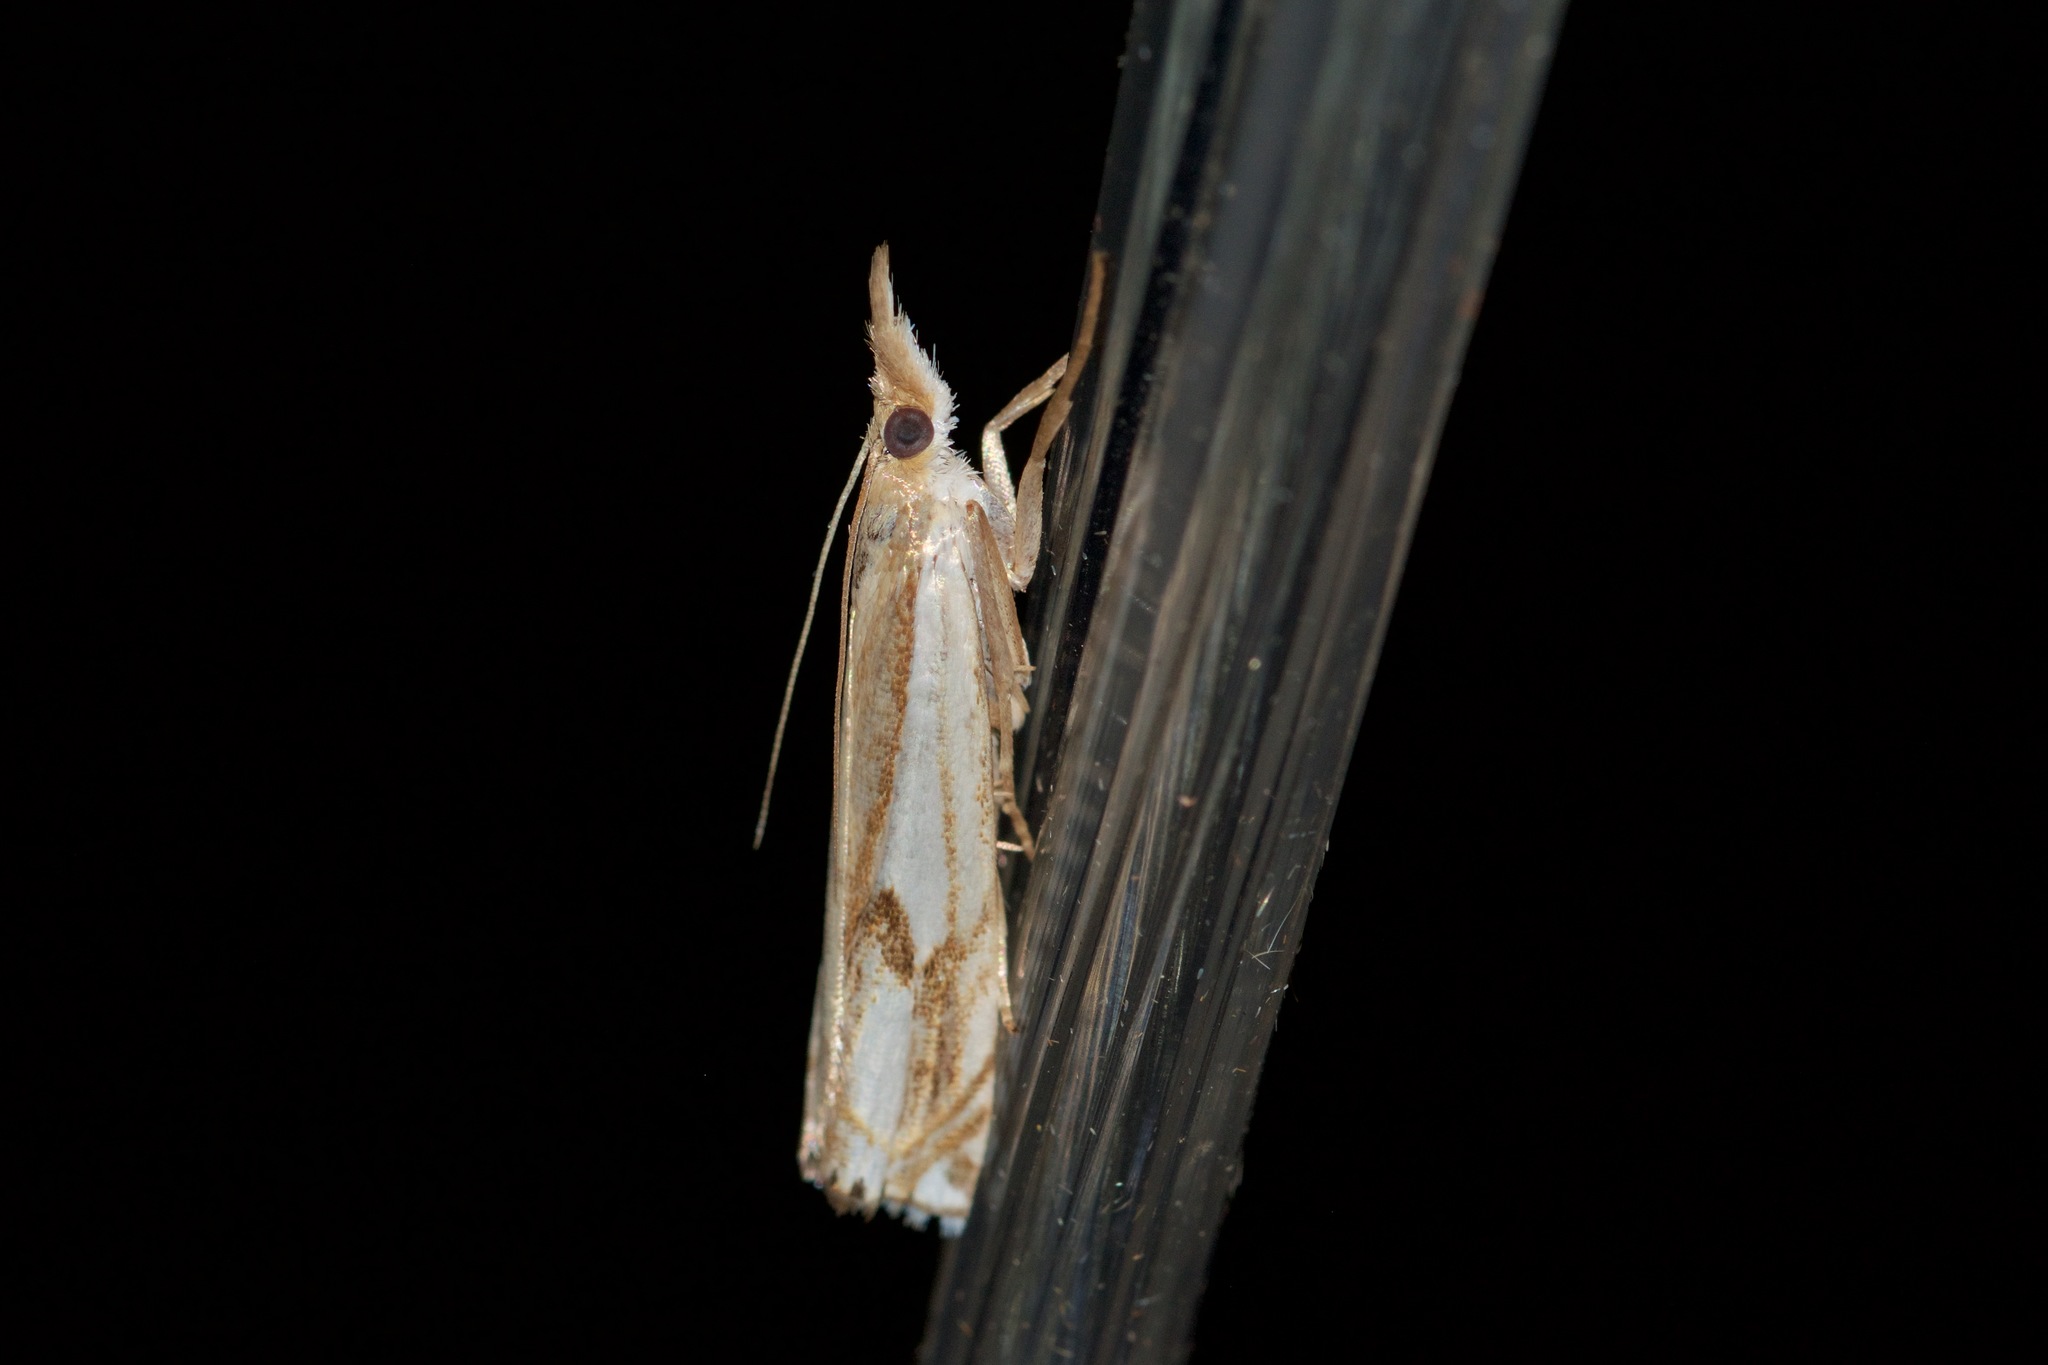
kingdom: Animalia
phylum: Arthropoda
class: Insecta
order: Lepidoptera
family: Crambidae
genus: Crambus
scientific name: Crambus agitatellus
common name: Double-banded grass-veneer
